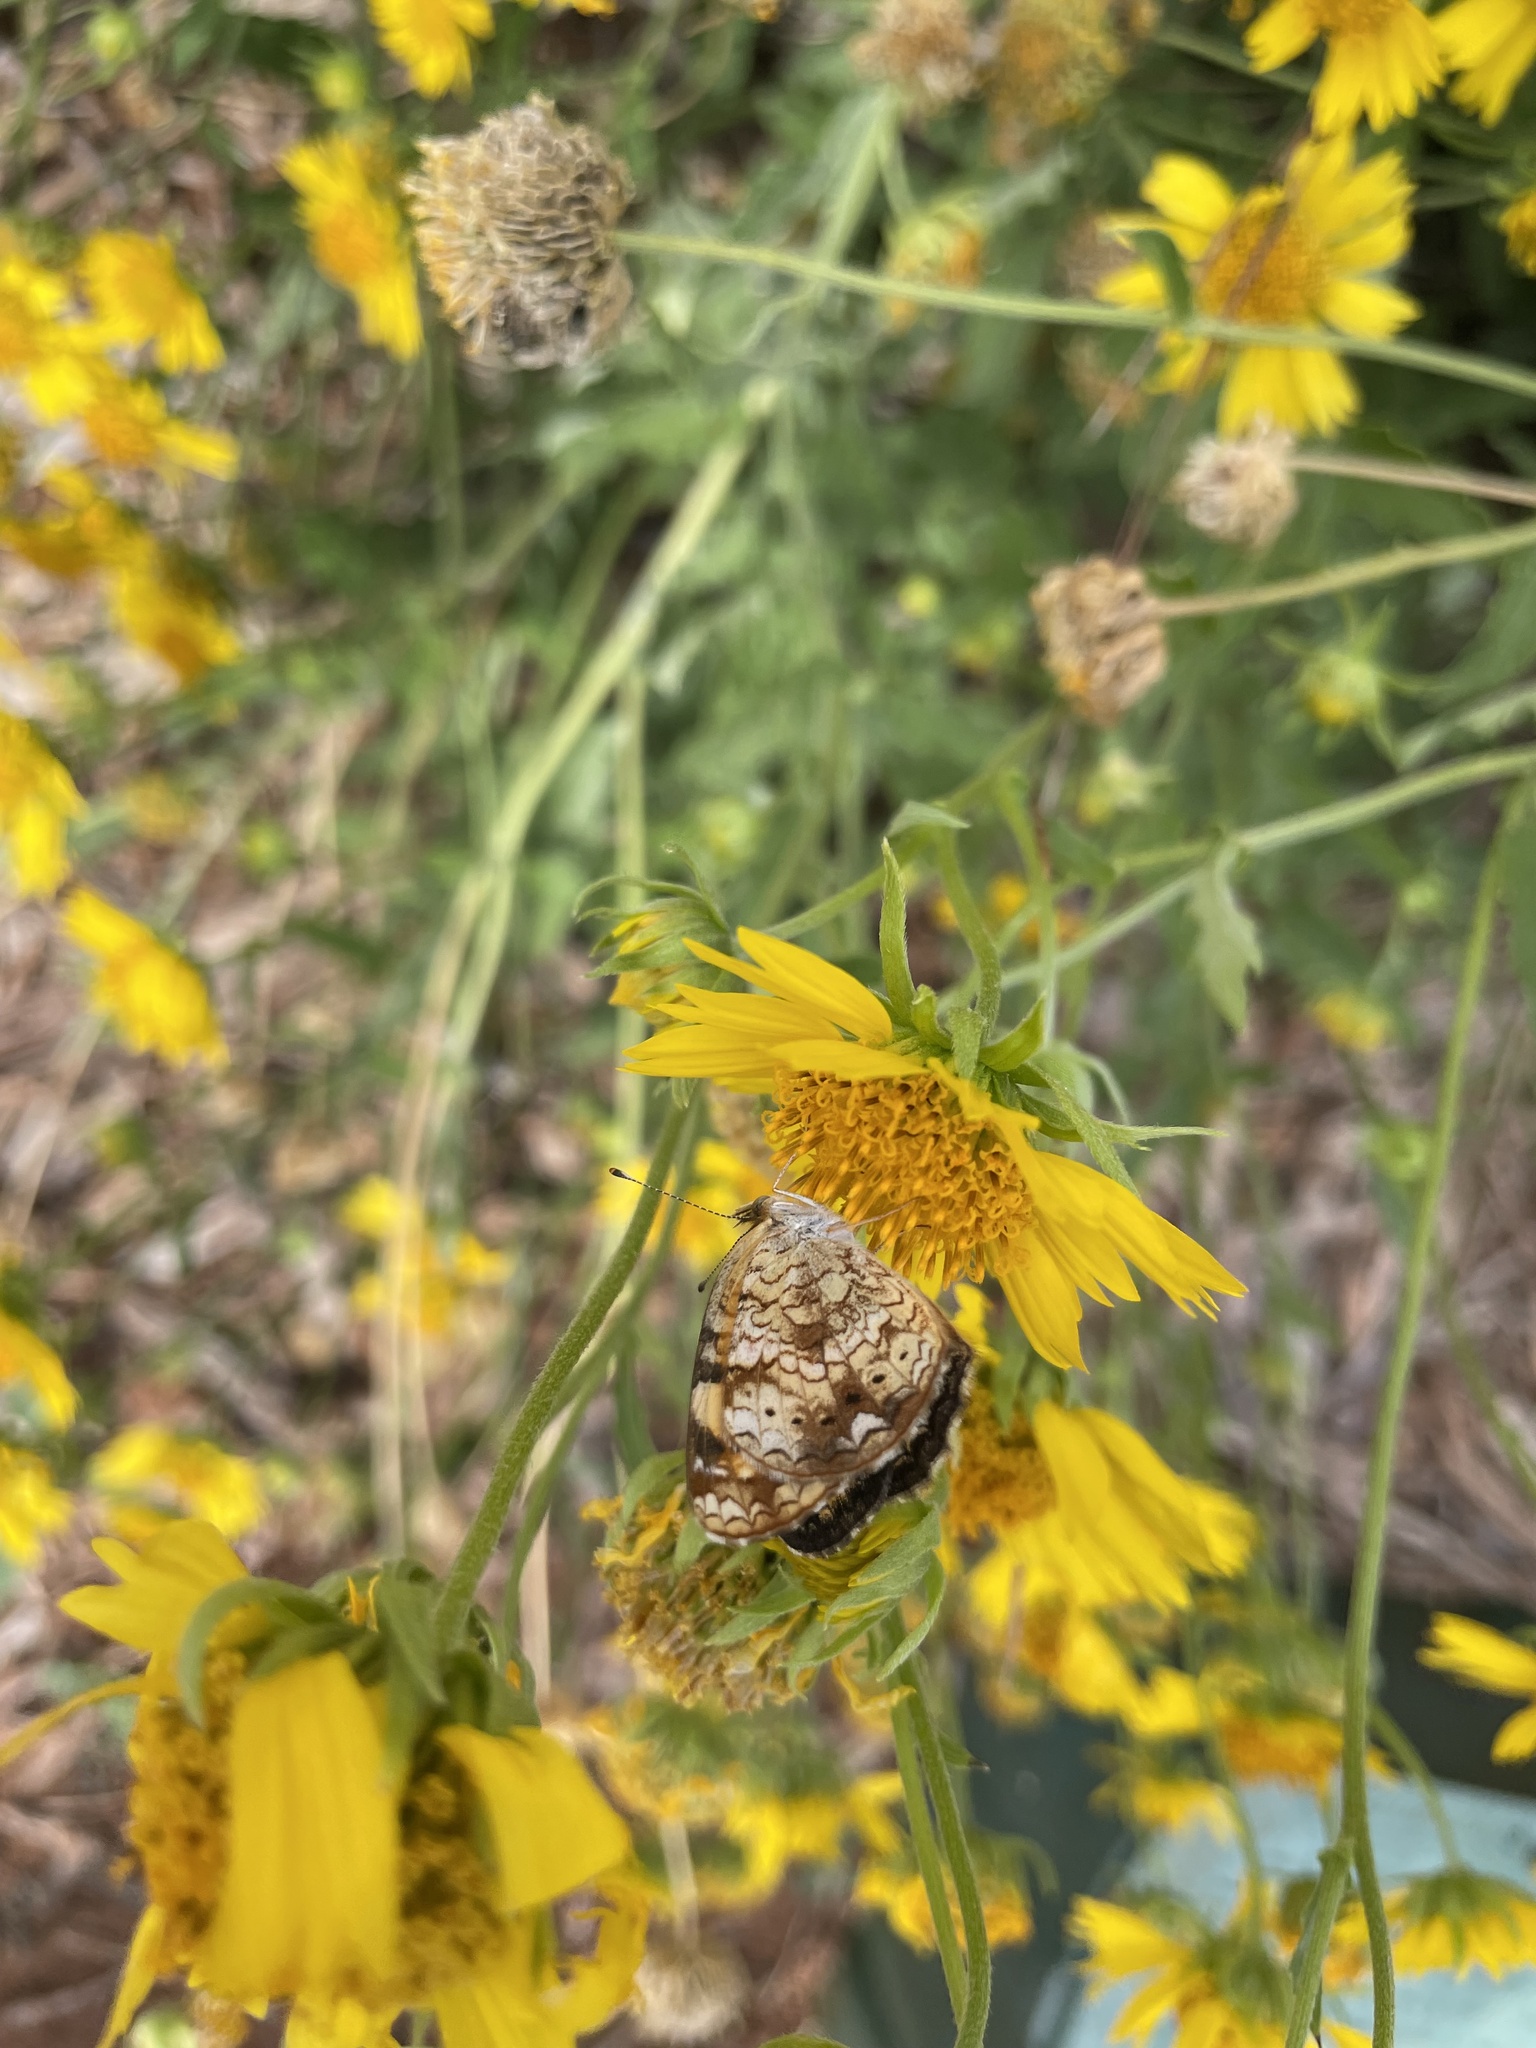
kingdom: Animalia
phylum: Arthropoda
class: Insecta
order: Lepidoptera
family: Nymphalidae
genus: Phyciodes
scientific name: Phyciodes tharos
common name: Pearl crescent
